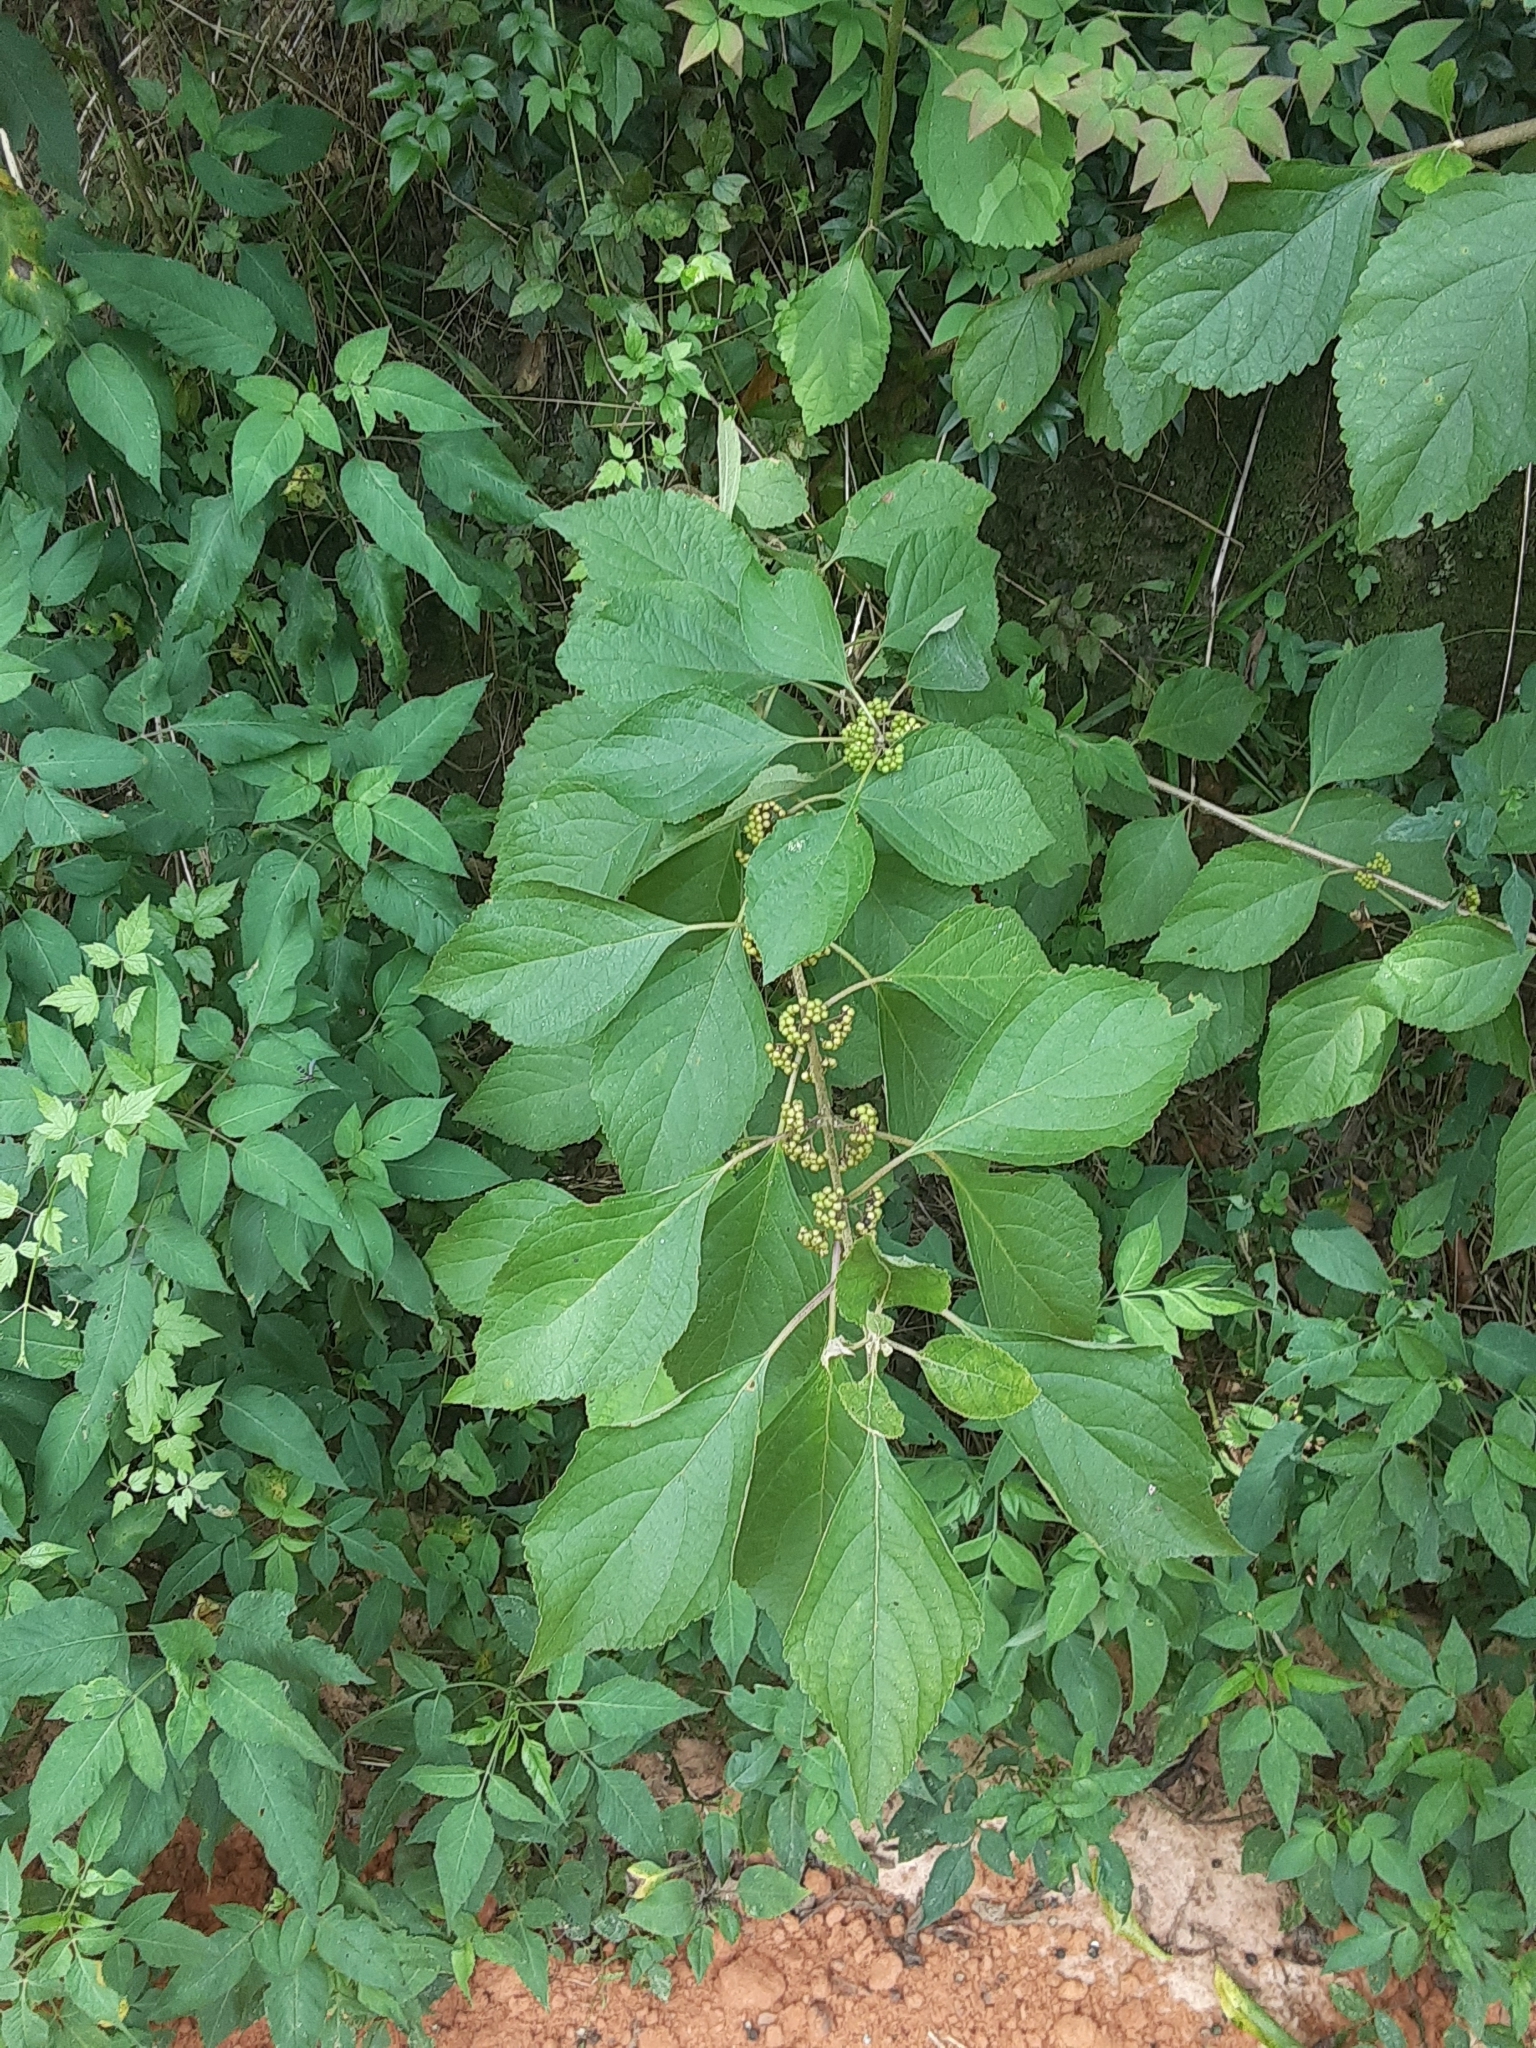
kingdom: Plantae
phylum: Tracheophyta
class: Magnoliopsida
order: Lamiales
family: Lamiaceae
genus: Callicarpa
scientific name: Callicarpa americana
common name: American beautyberry
